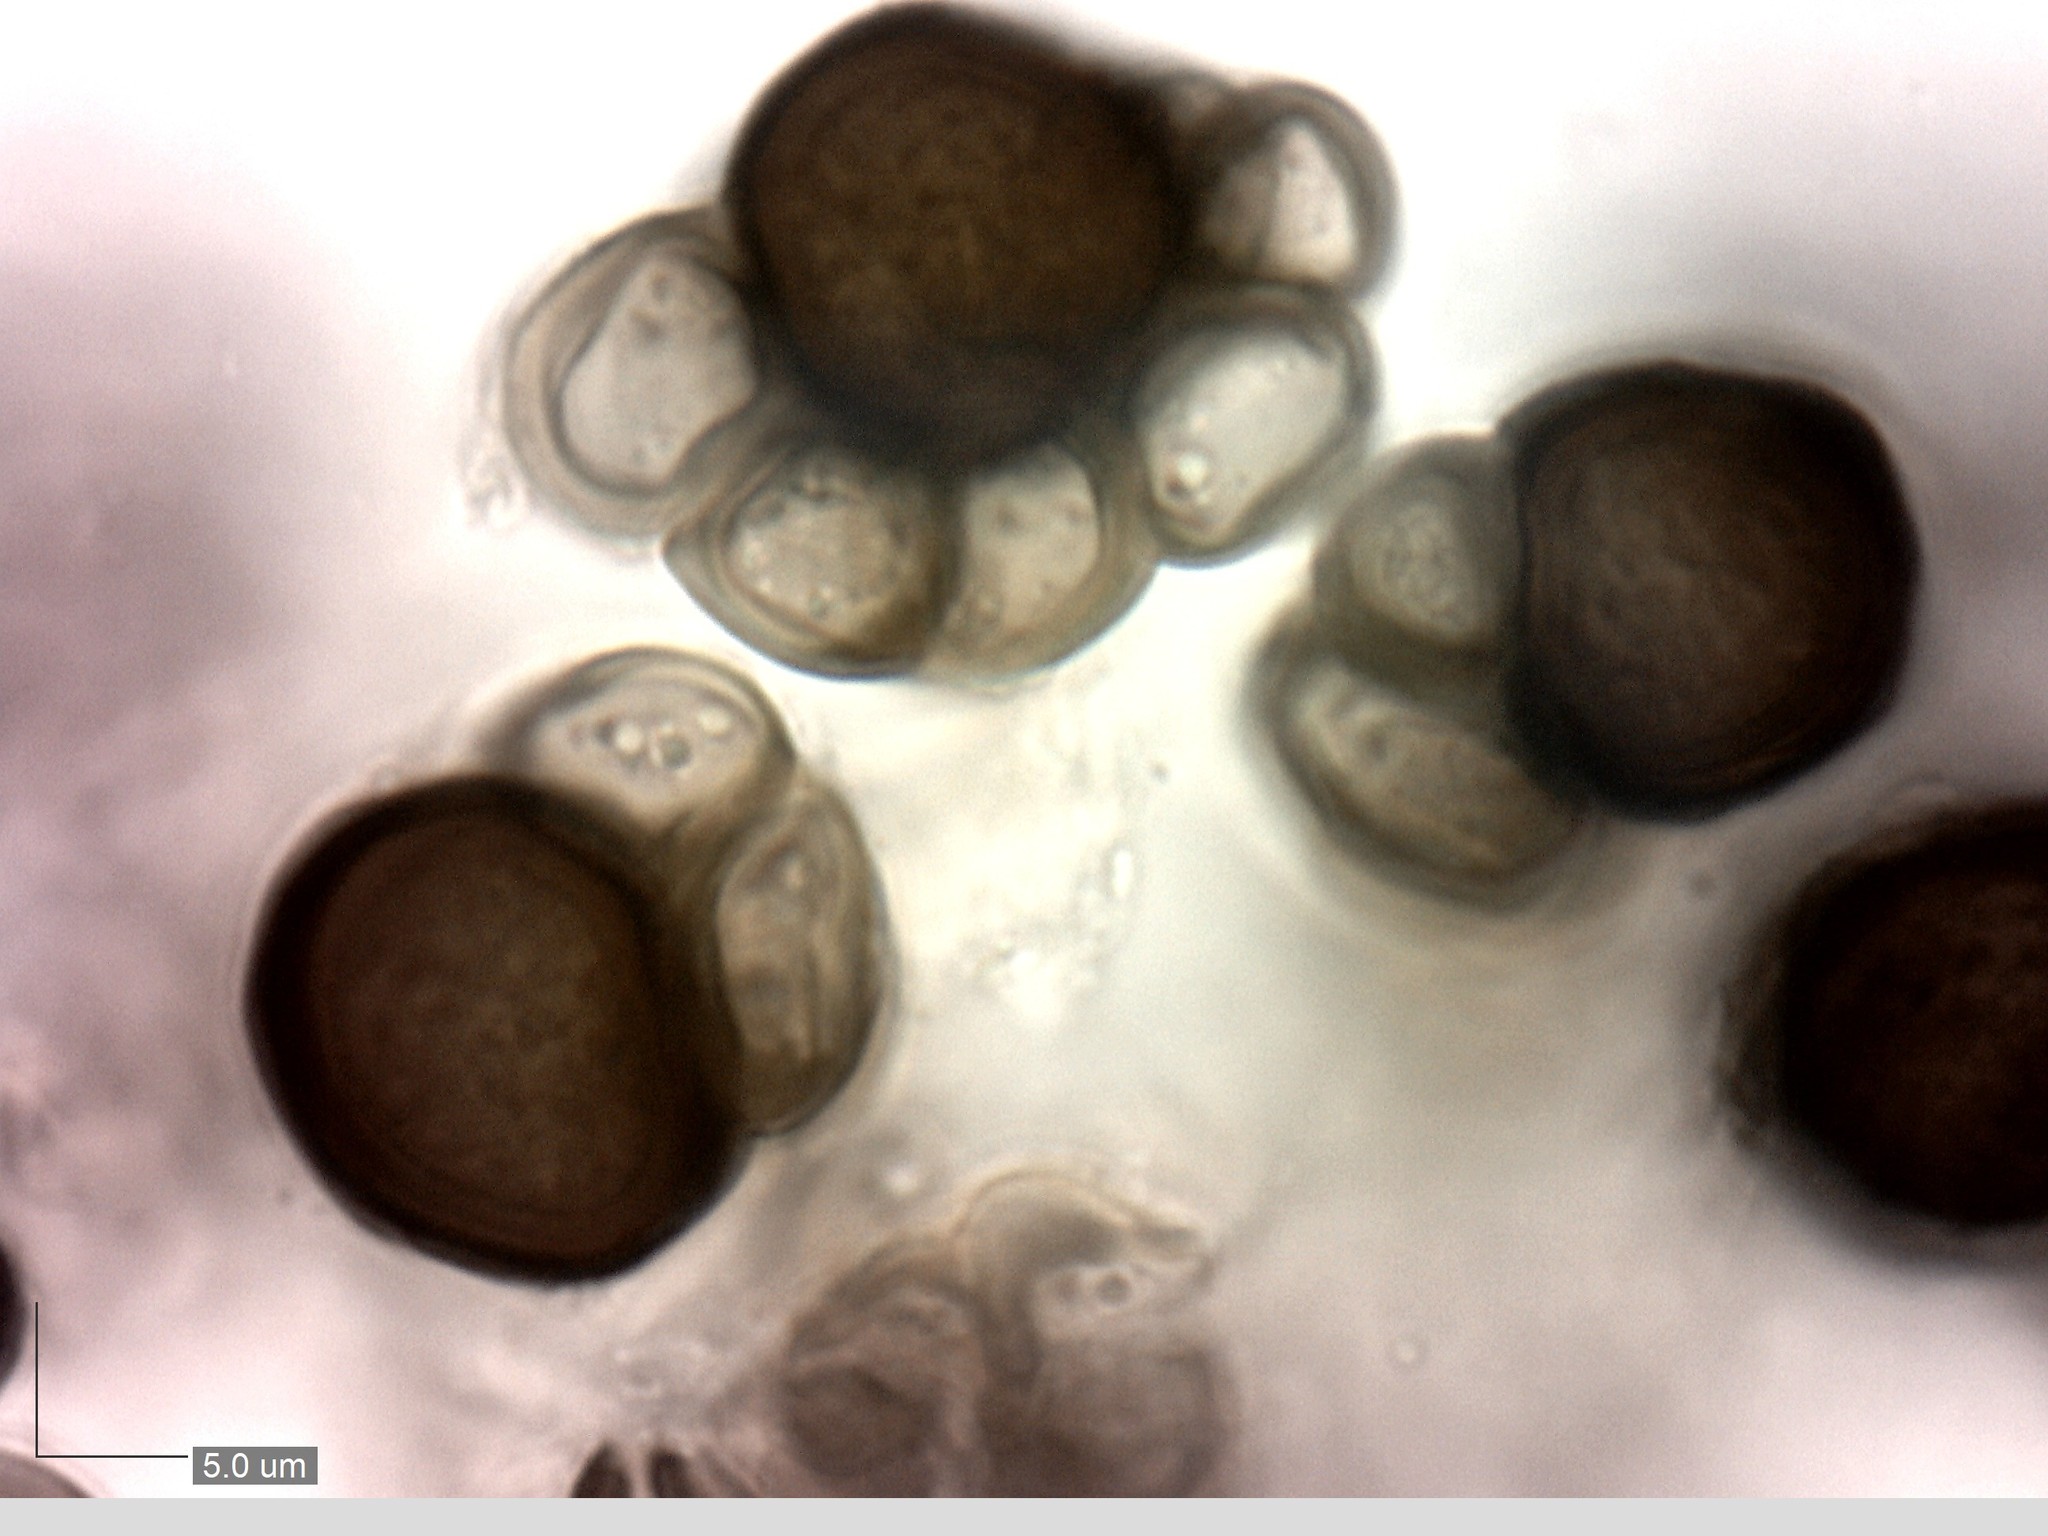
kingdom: Fungi
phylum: Basidiomycota
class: Ustilaginomycetes
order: Urocystidales
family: Urocystidaceae
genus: Urocystis
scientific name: Urocystis anemones
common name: Anemone smut
